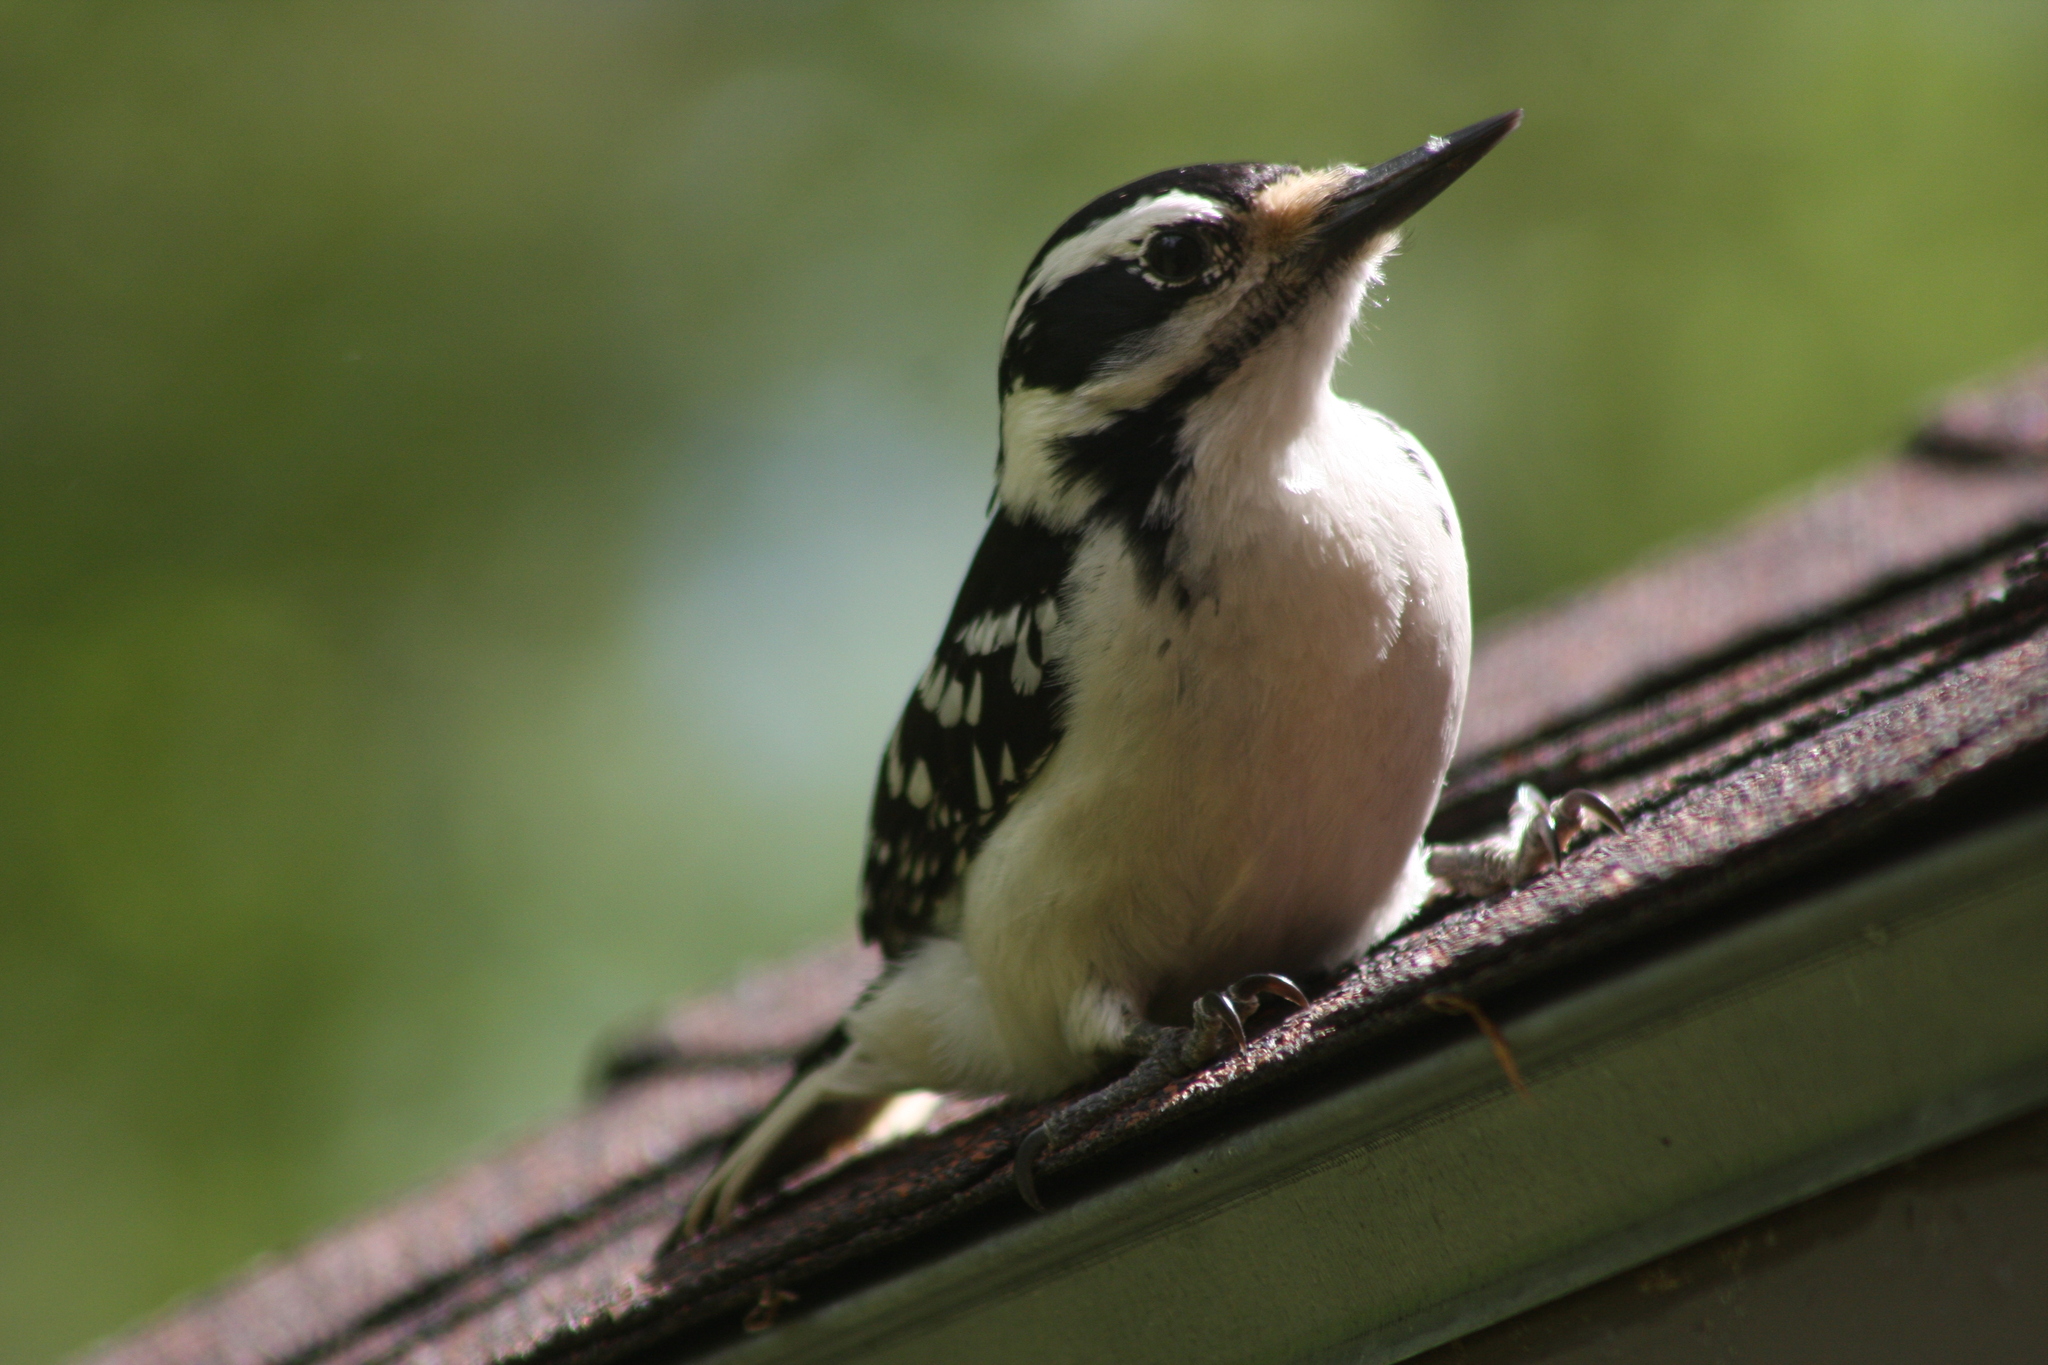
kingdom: Animalia
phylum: Chordata
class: Aves
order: Piciformes
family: Picidae
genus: Leuconotopicus
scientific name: Leuconotopicus villosus
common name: Hairy woodpecker
